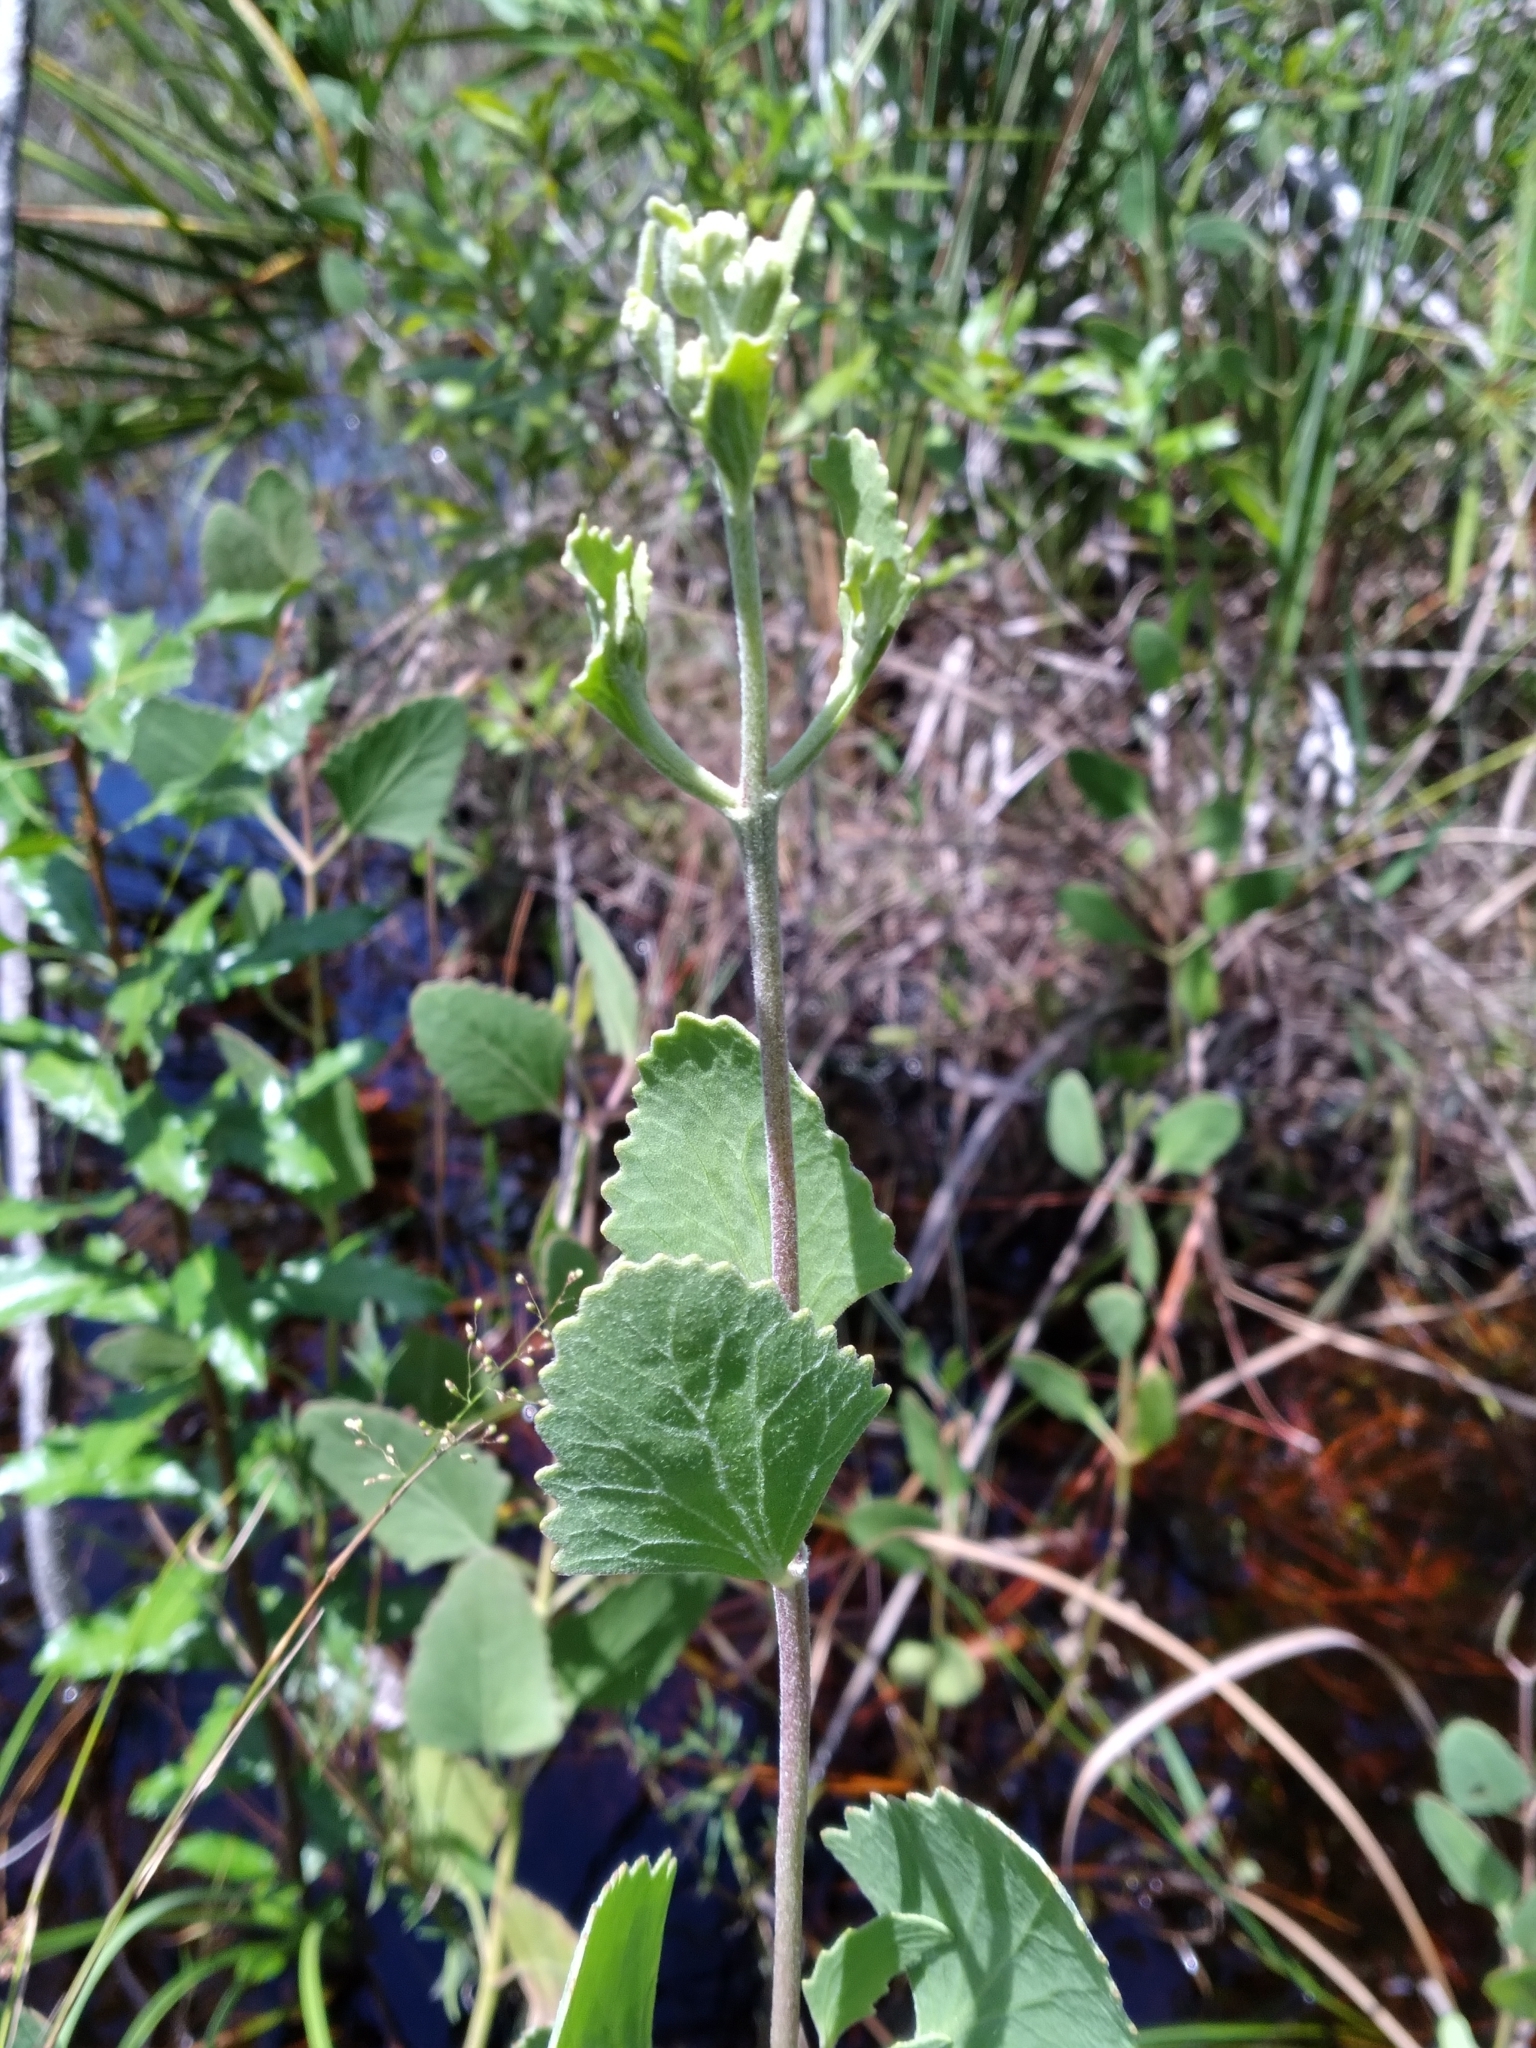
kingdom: Plantae
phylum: Tracheophyta
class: Magnoliopsida
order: Asterales
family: Asteraceae
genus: Eupatorium
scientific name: Eupatorium mikanioides
